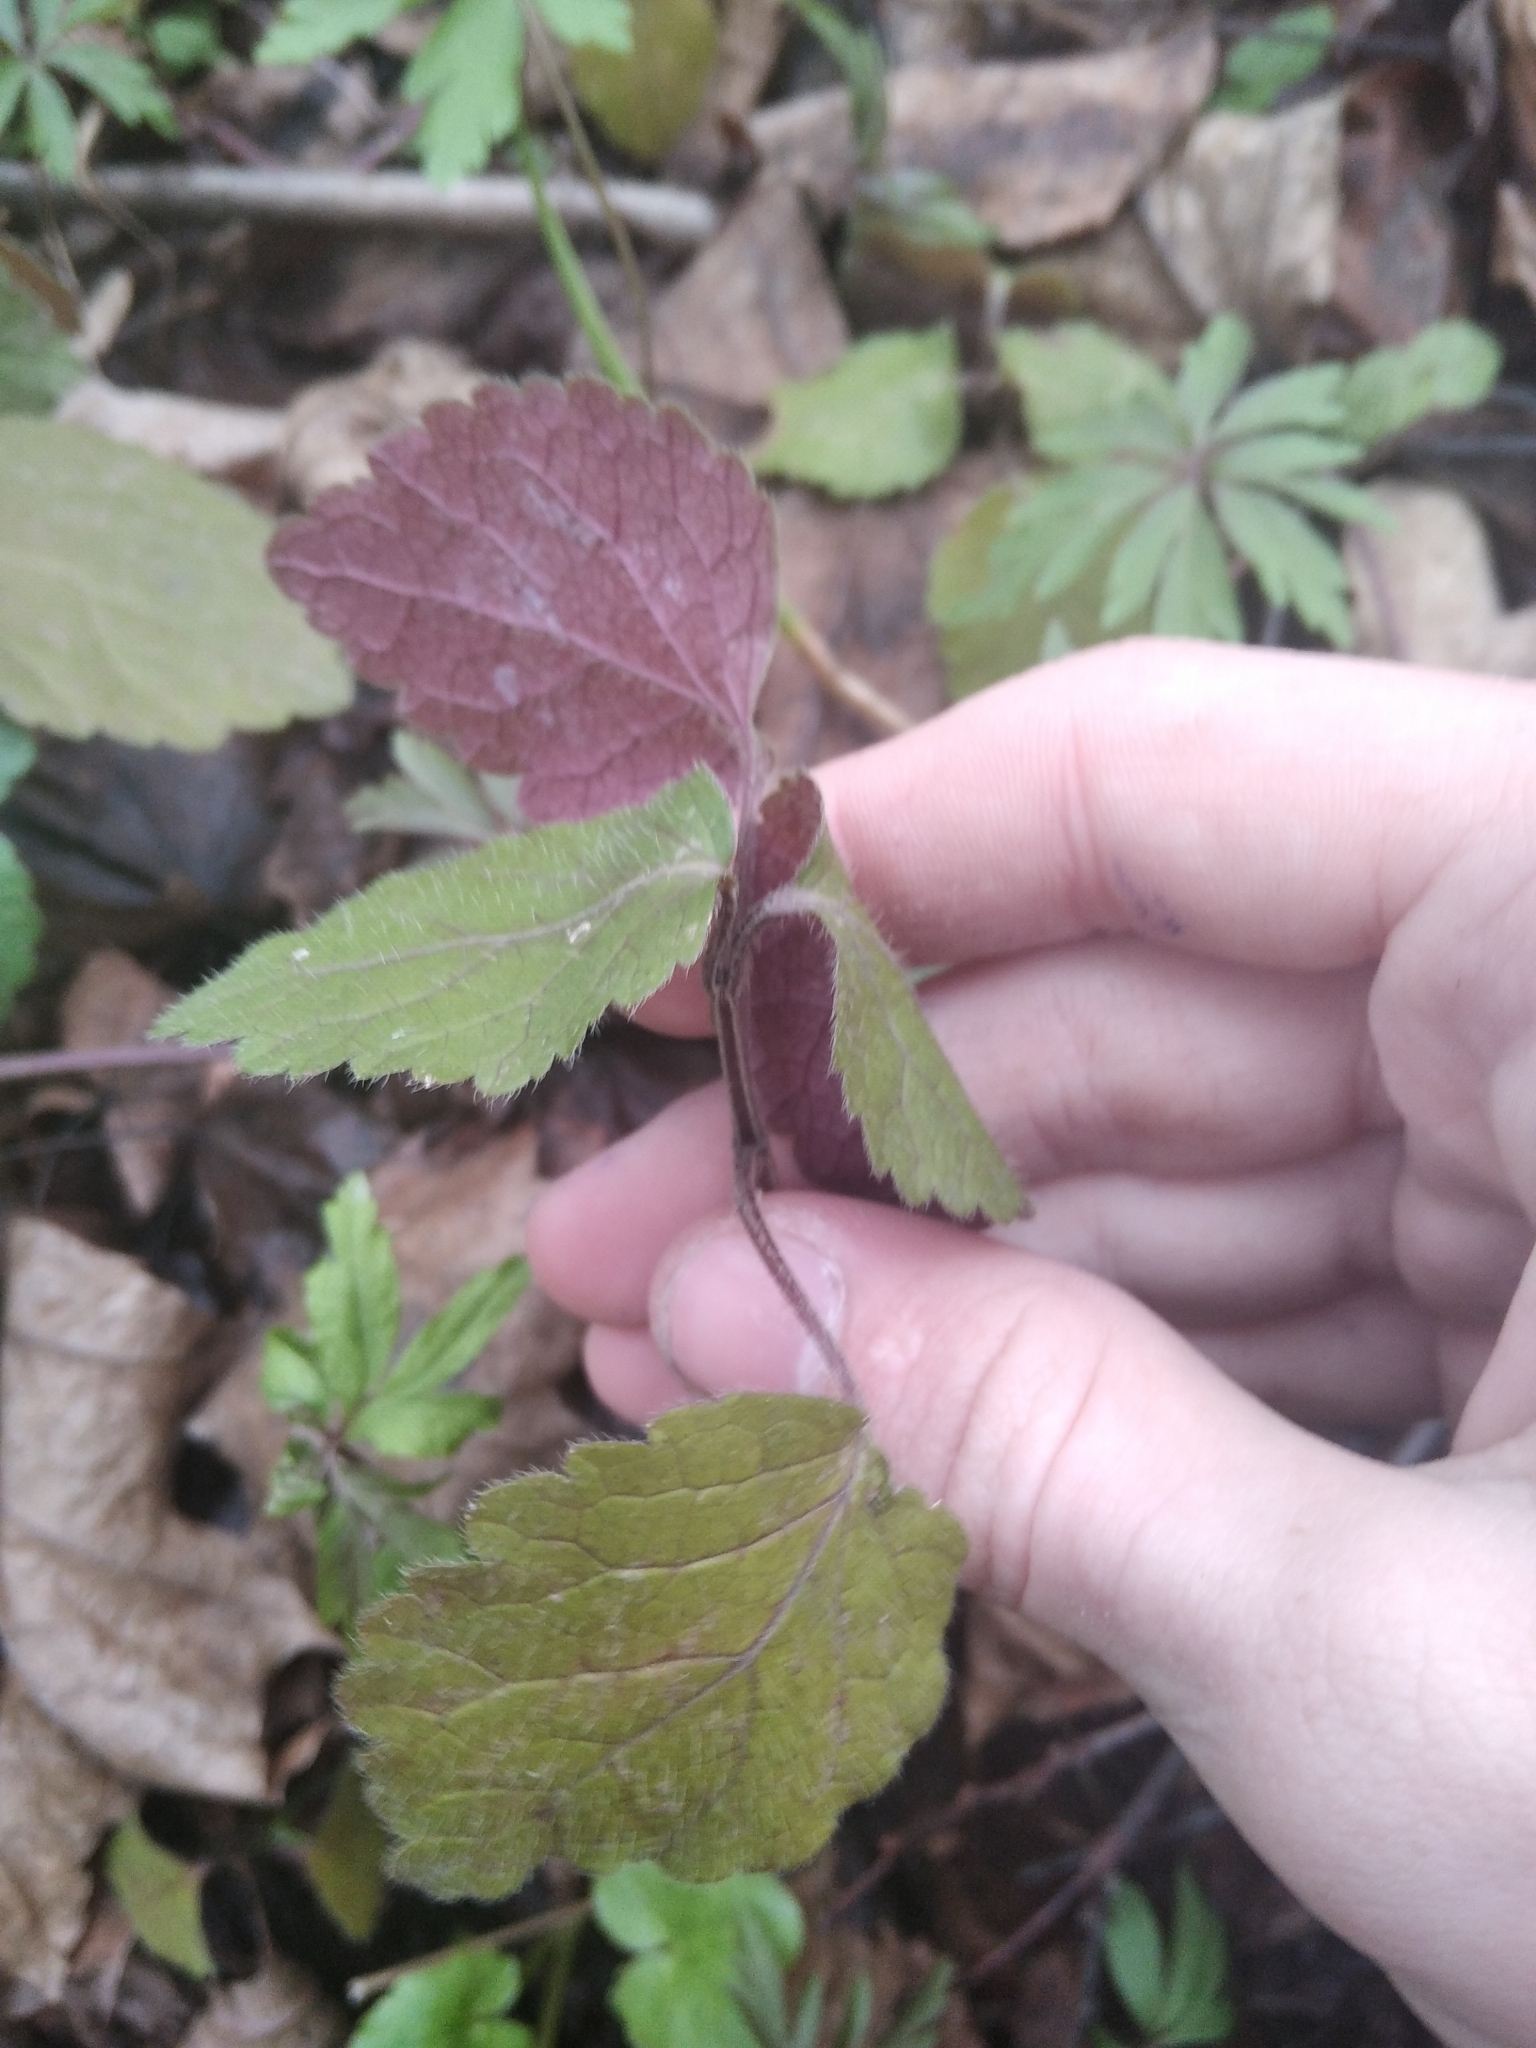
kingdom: Plantae
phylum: Tracheophyta
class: Magnoliopsida
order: Lamiales
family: Plantaginaceae
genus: Veronica
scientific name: Veronica chamaedrys
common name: Germander speedwell
